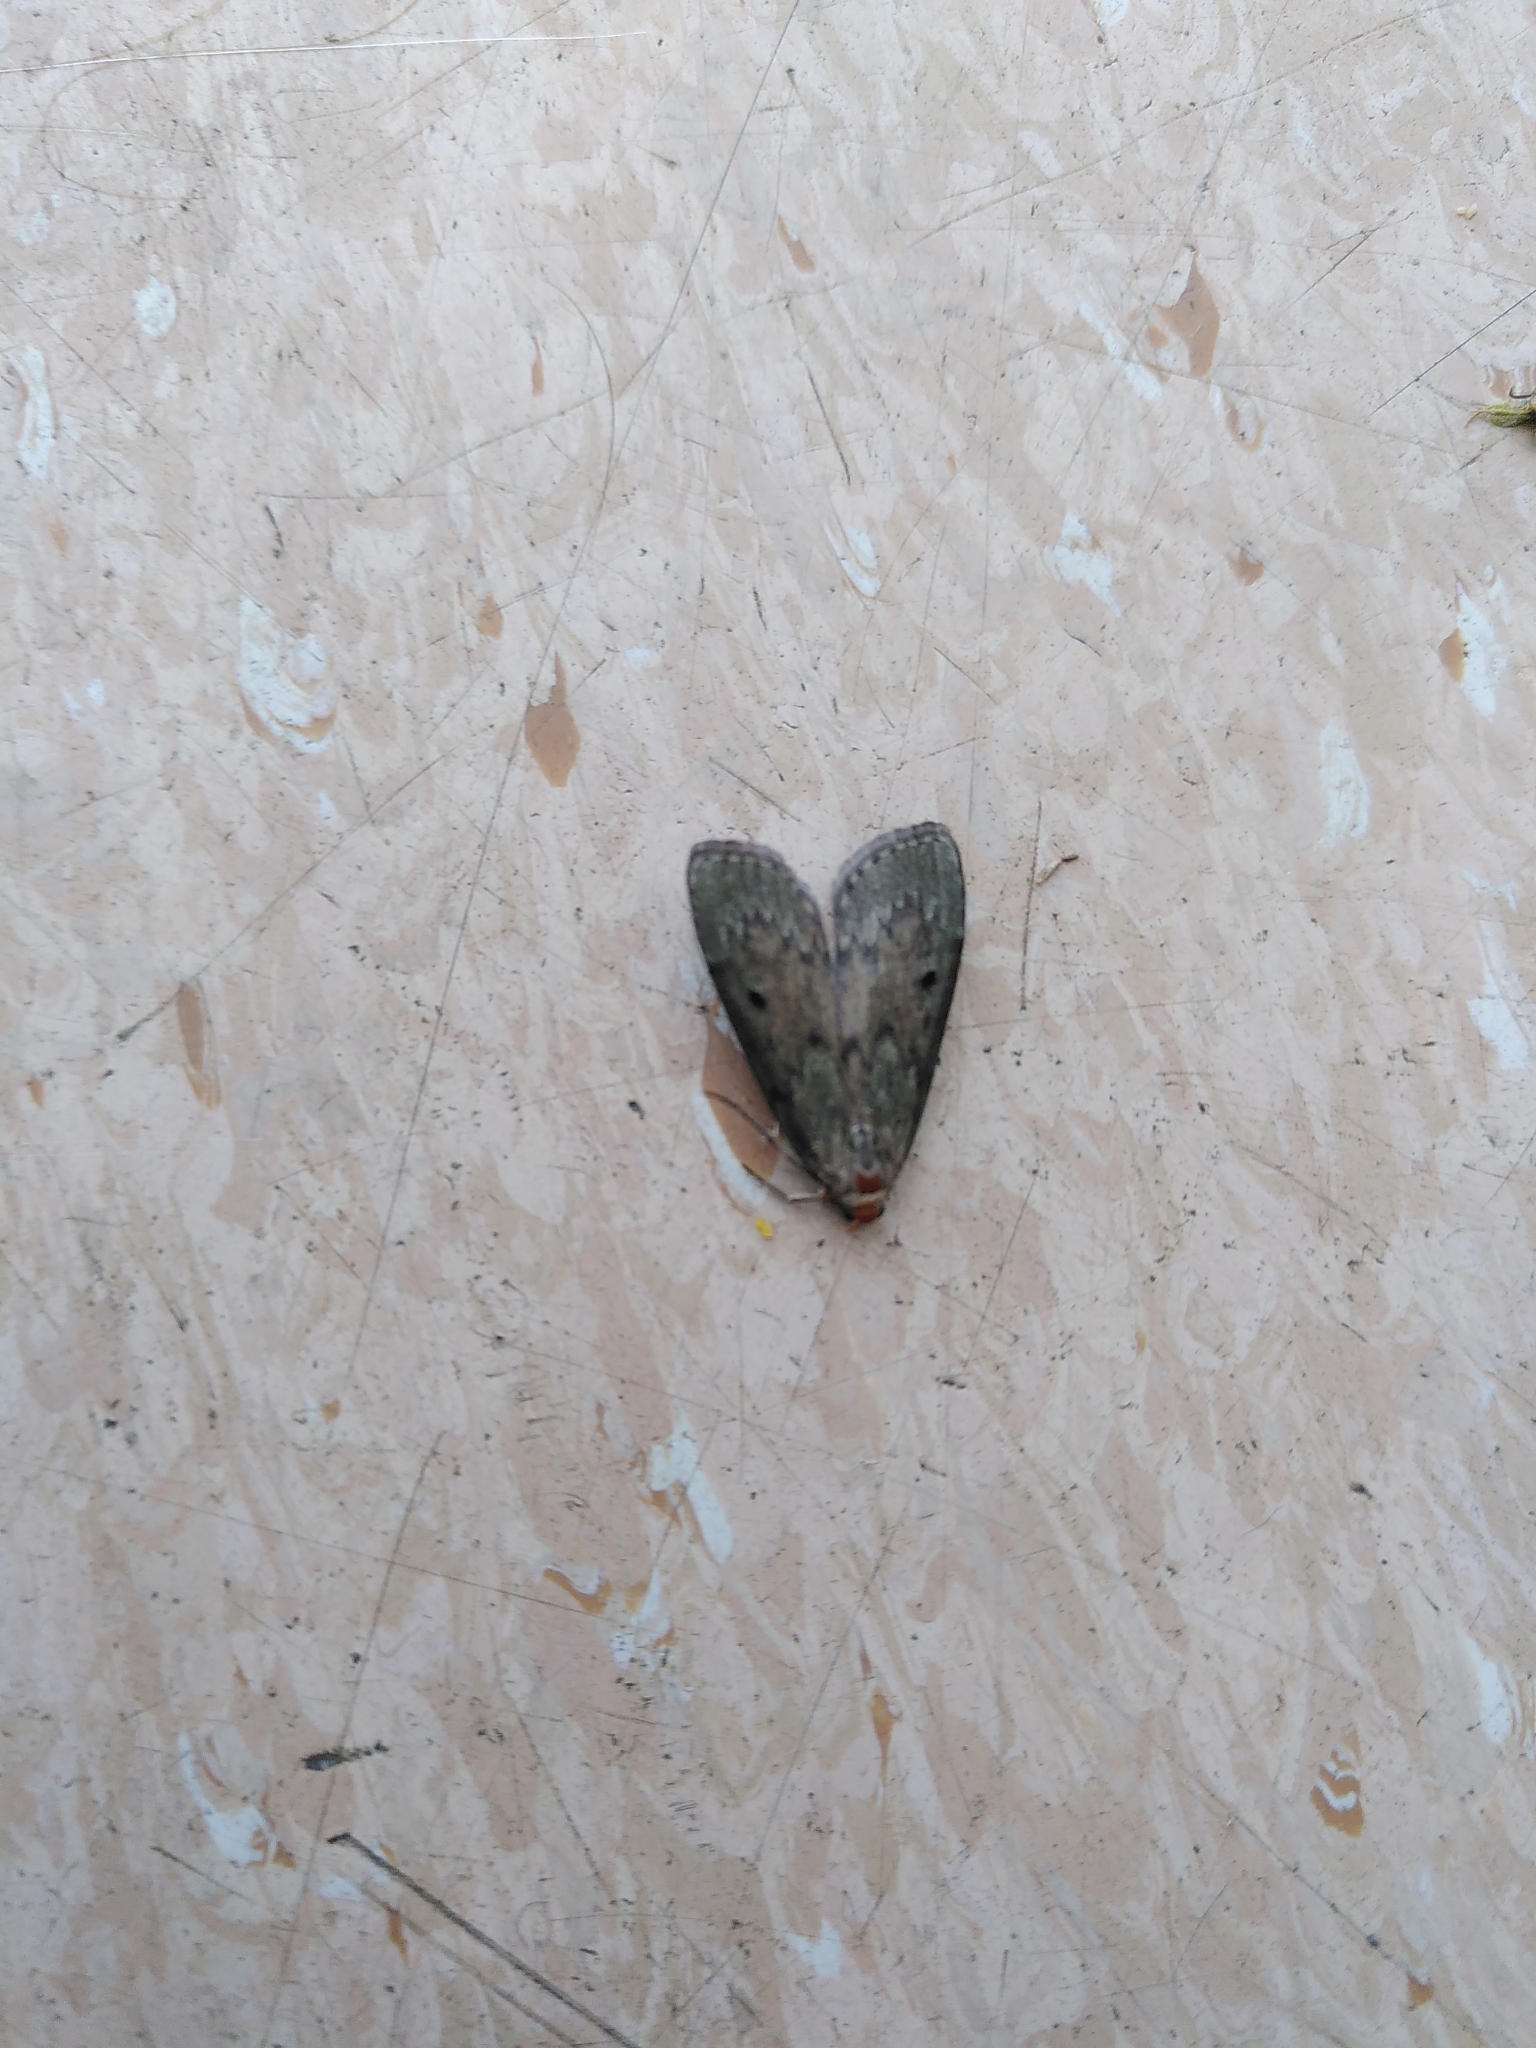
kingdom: Animalia
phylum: Arthropoda
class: Insecta
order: Lepidoptera
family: Pyralidae
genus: Aphomia
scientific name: Aphomia sociella
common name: Bee moth
